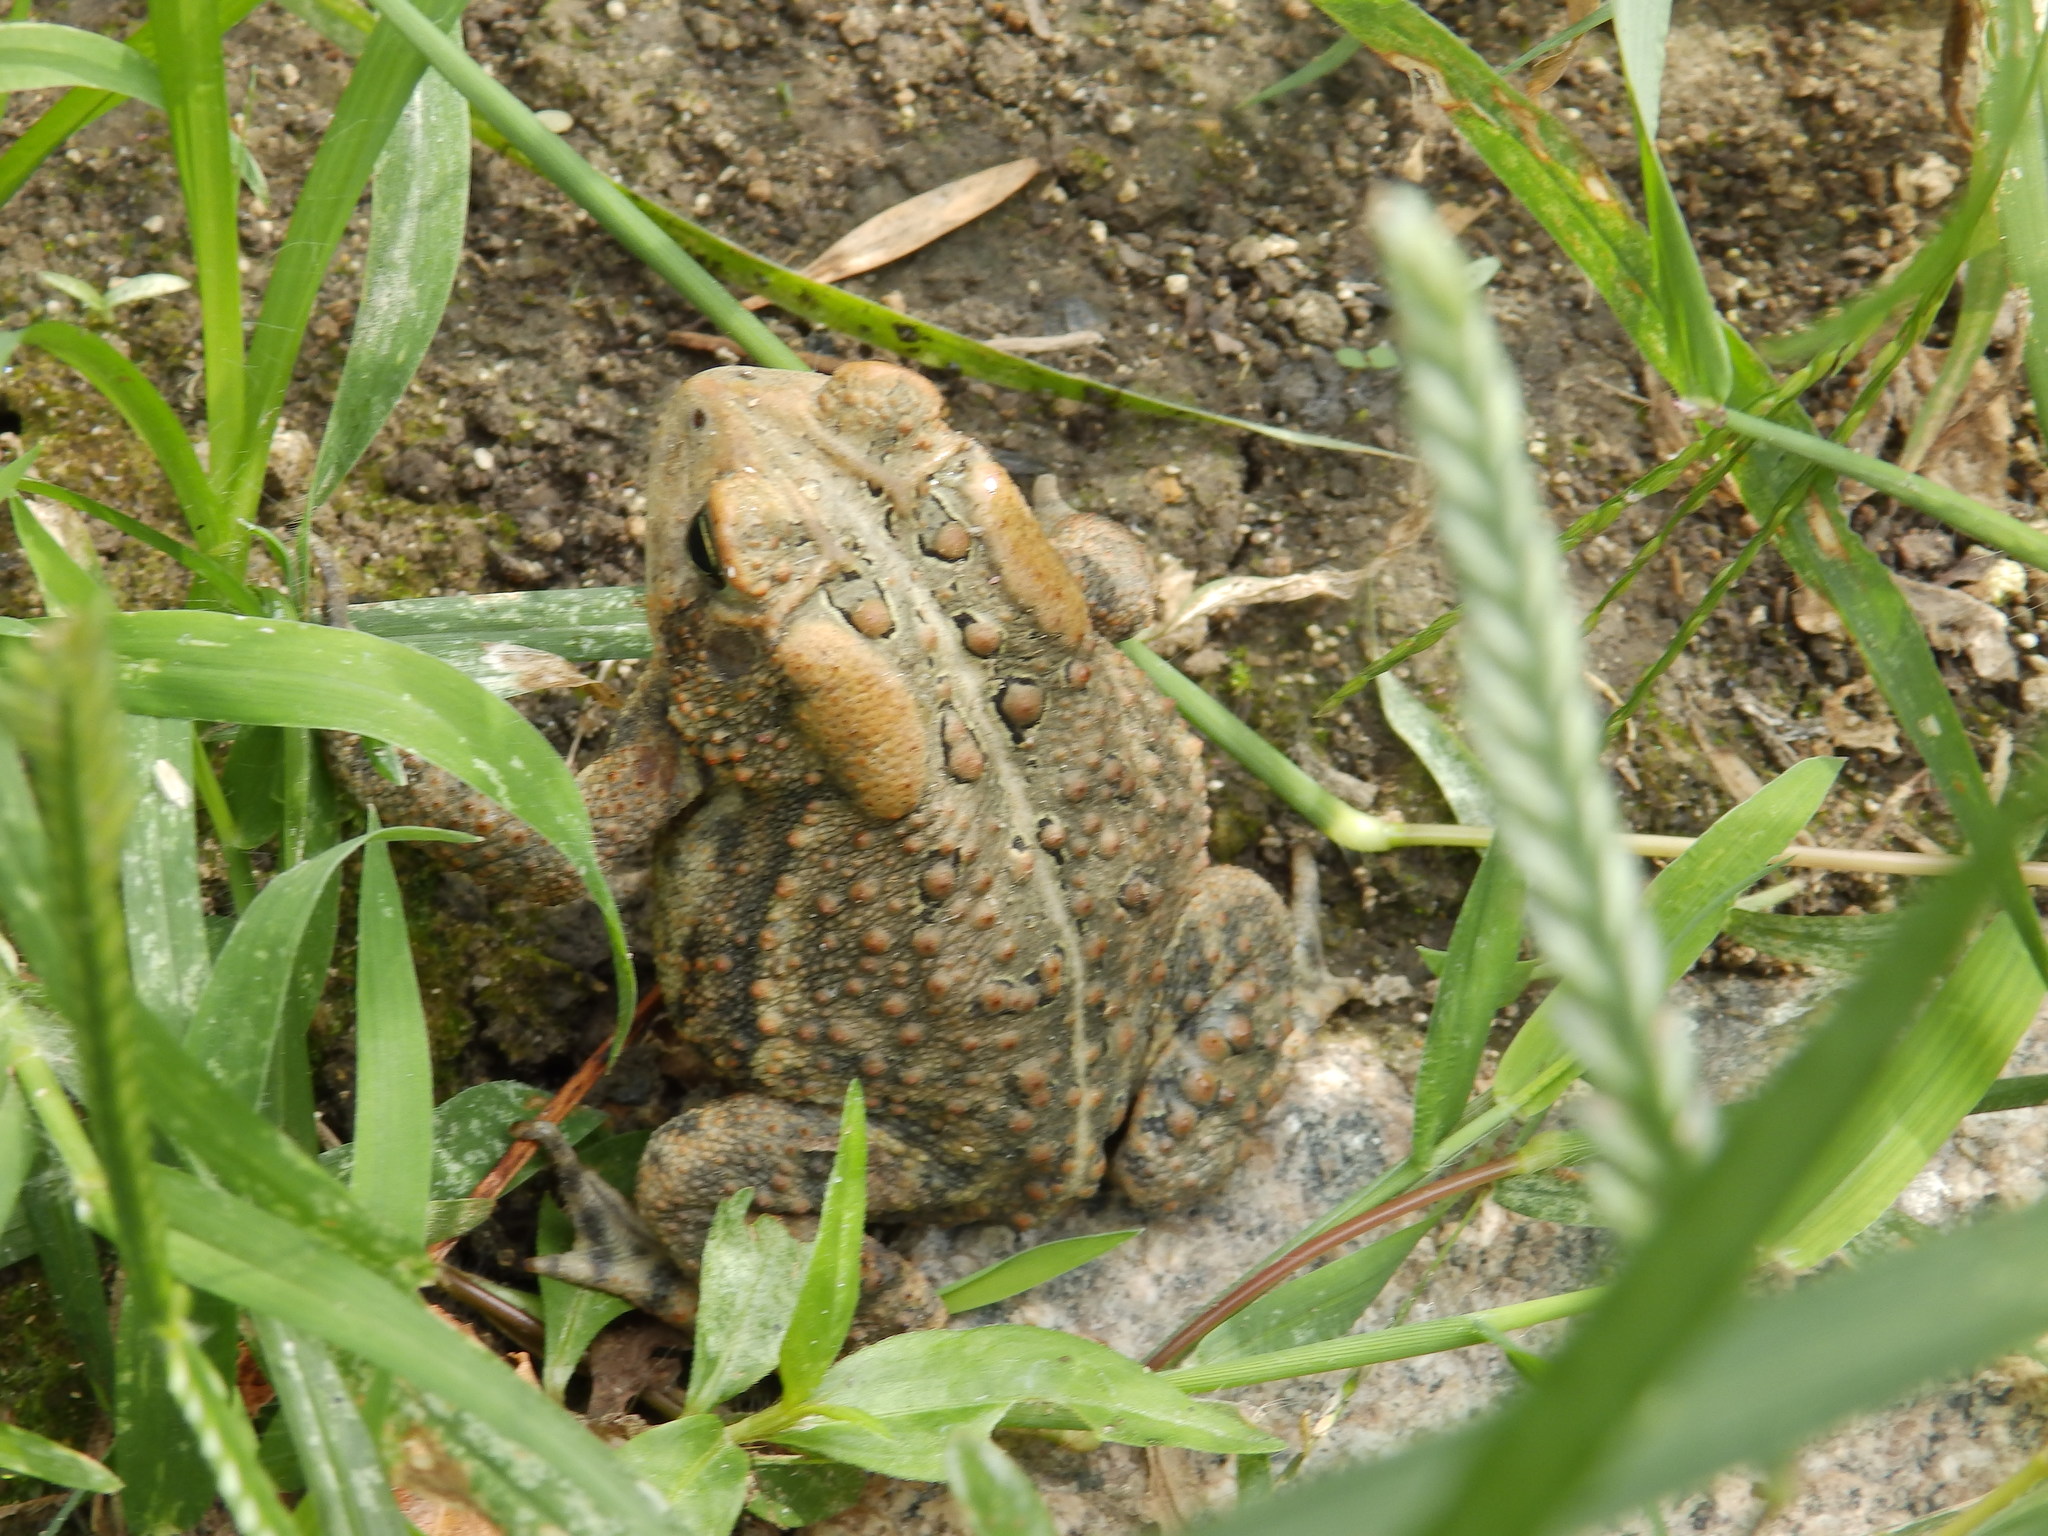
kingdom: Animalia
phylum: Chordata
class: Amphibia
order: Anura
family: Bufonidae
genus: Anaxyrus
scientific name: Anaxyrus americanus
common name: American toad
